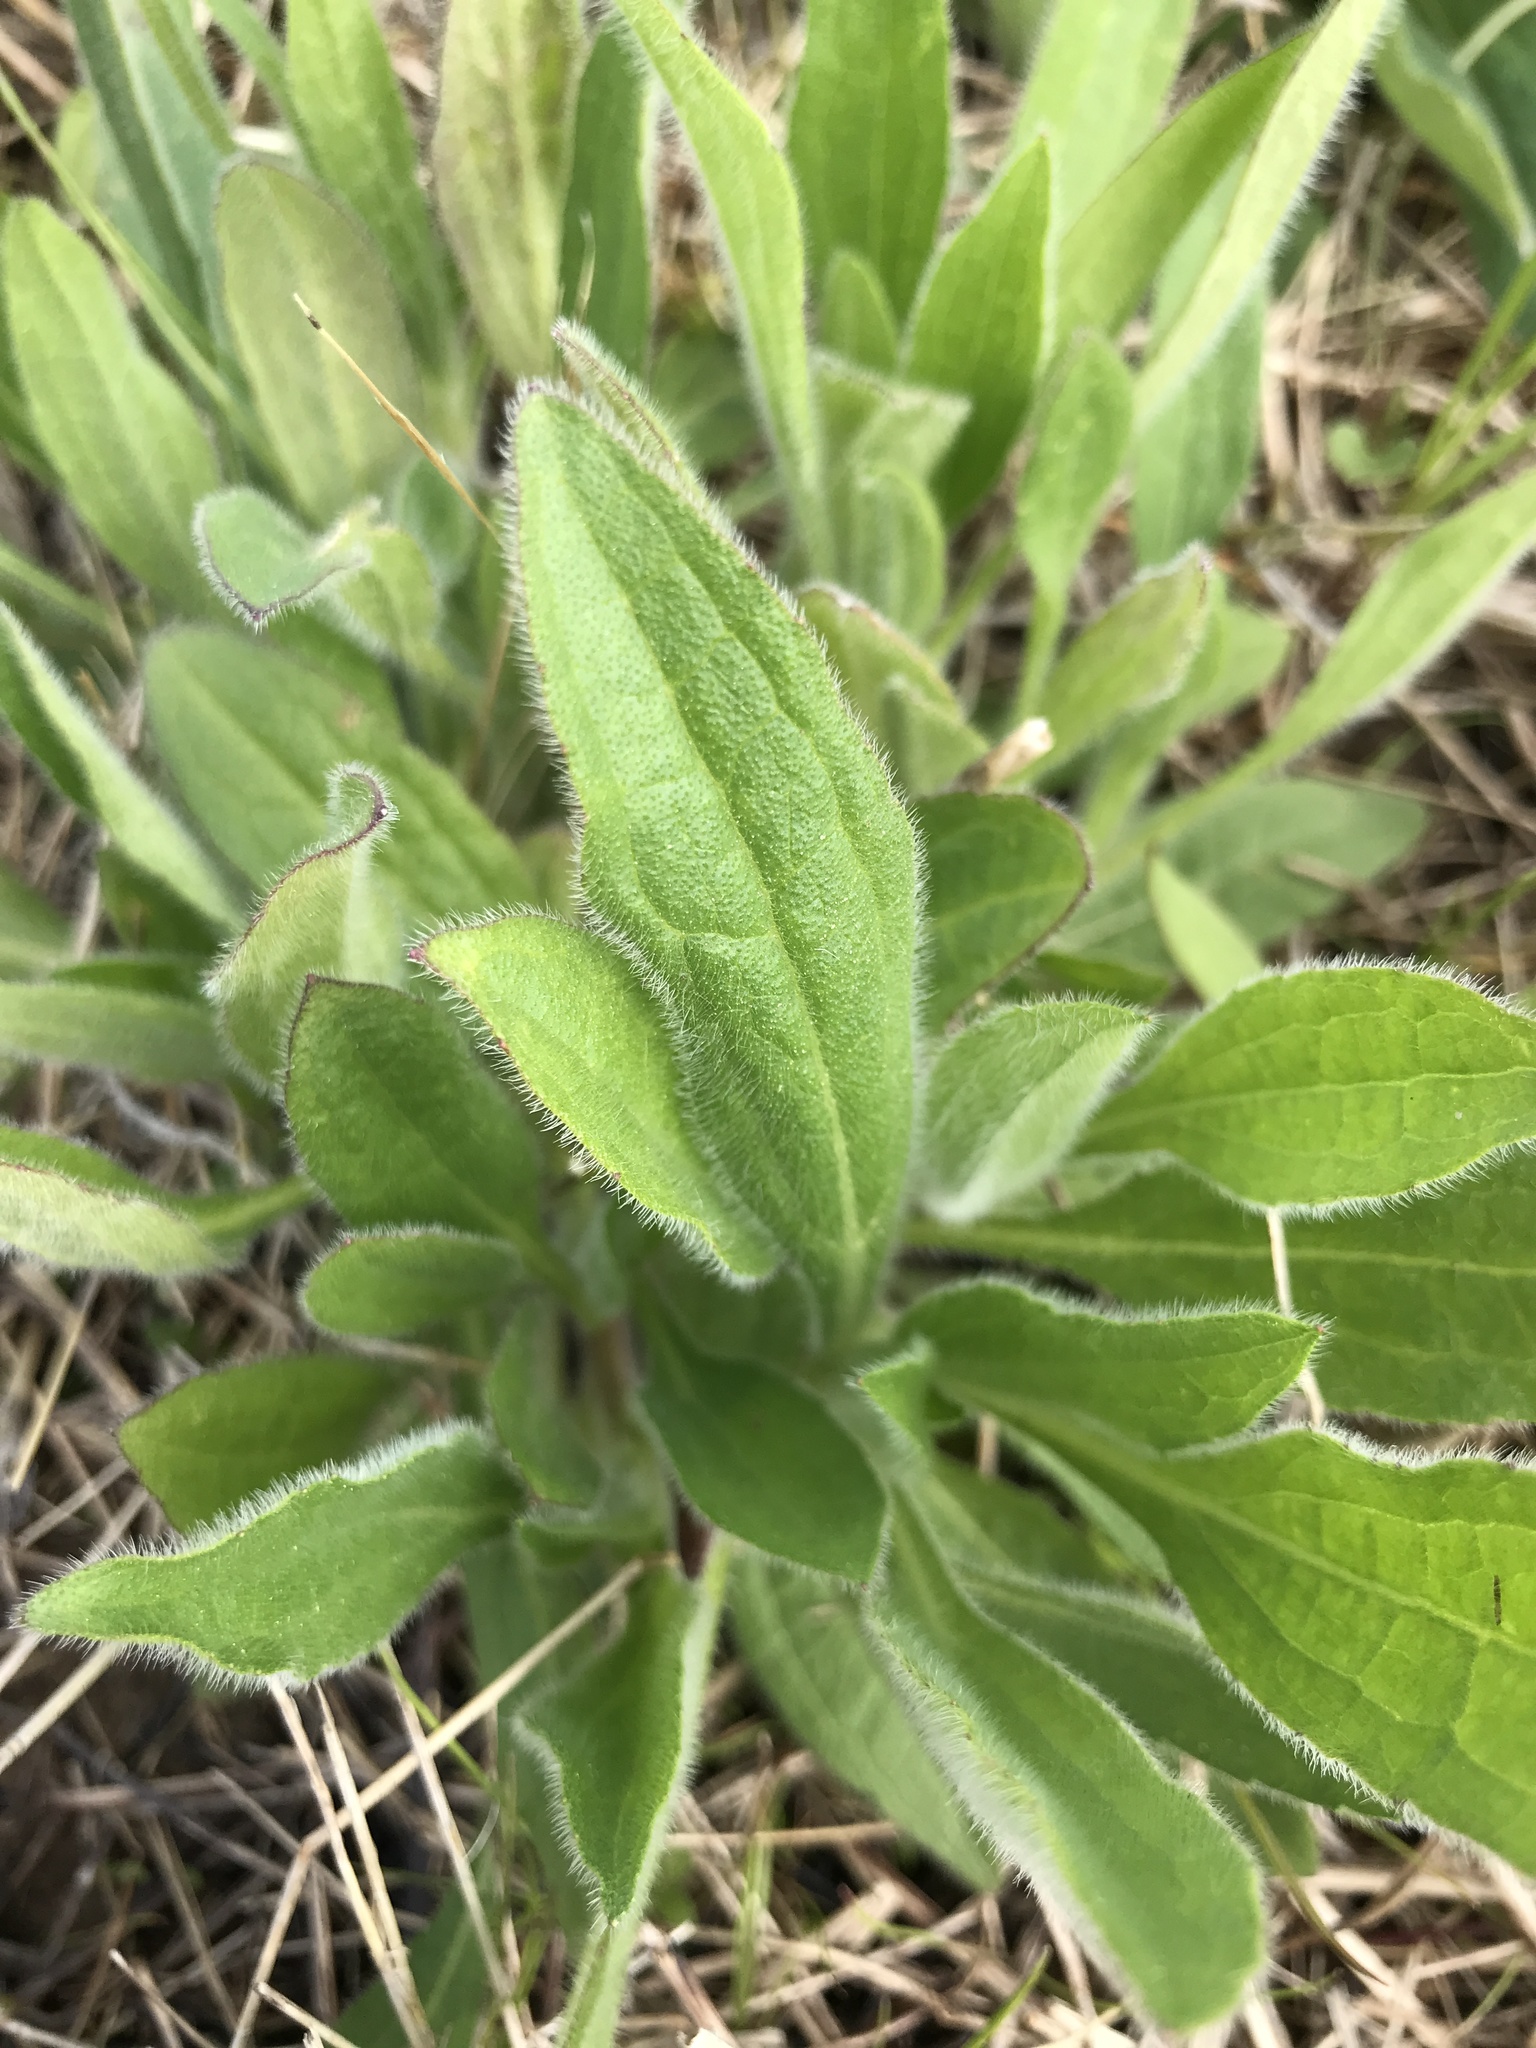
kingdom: Plantae
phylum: Tracheophyta
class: Magnoliopsida
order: Boraginales
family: Boraginaceae
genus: Cynoglossum
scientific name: Cynoglossum officinale
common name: Hound's-tongue
